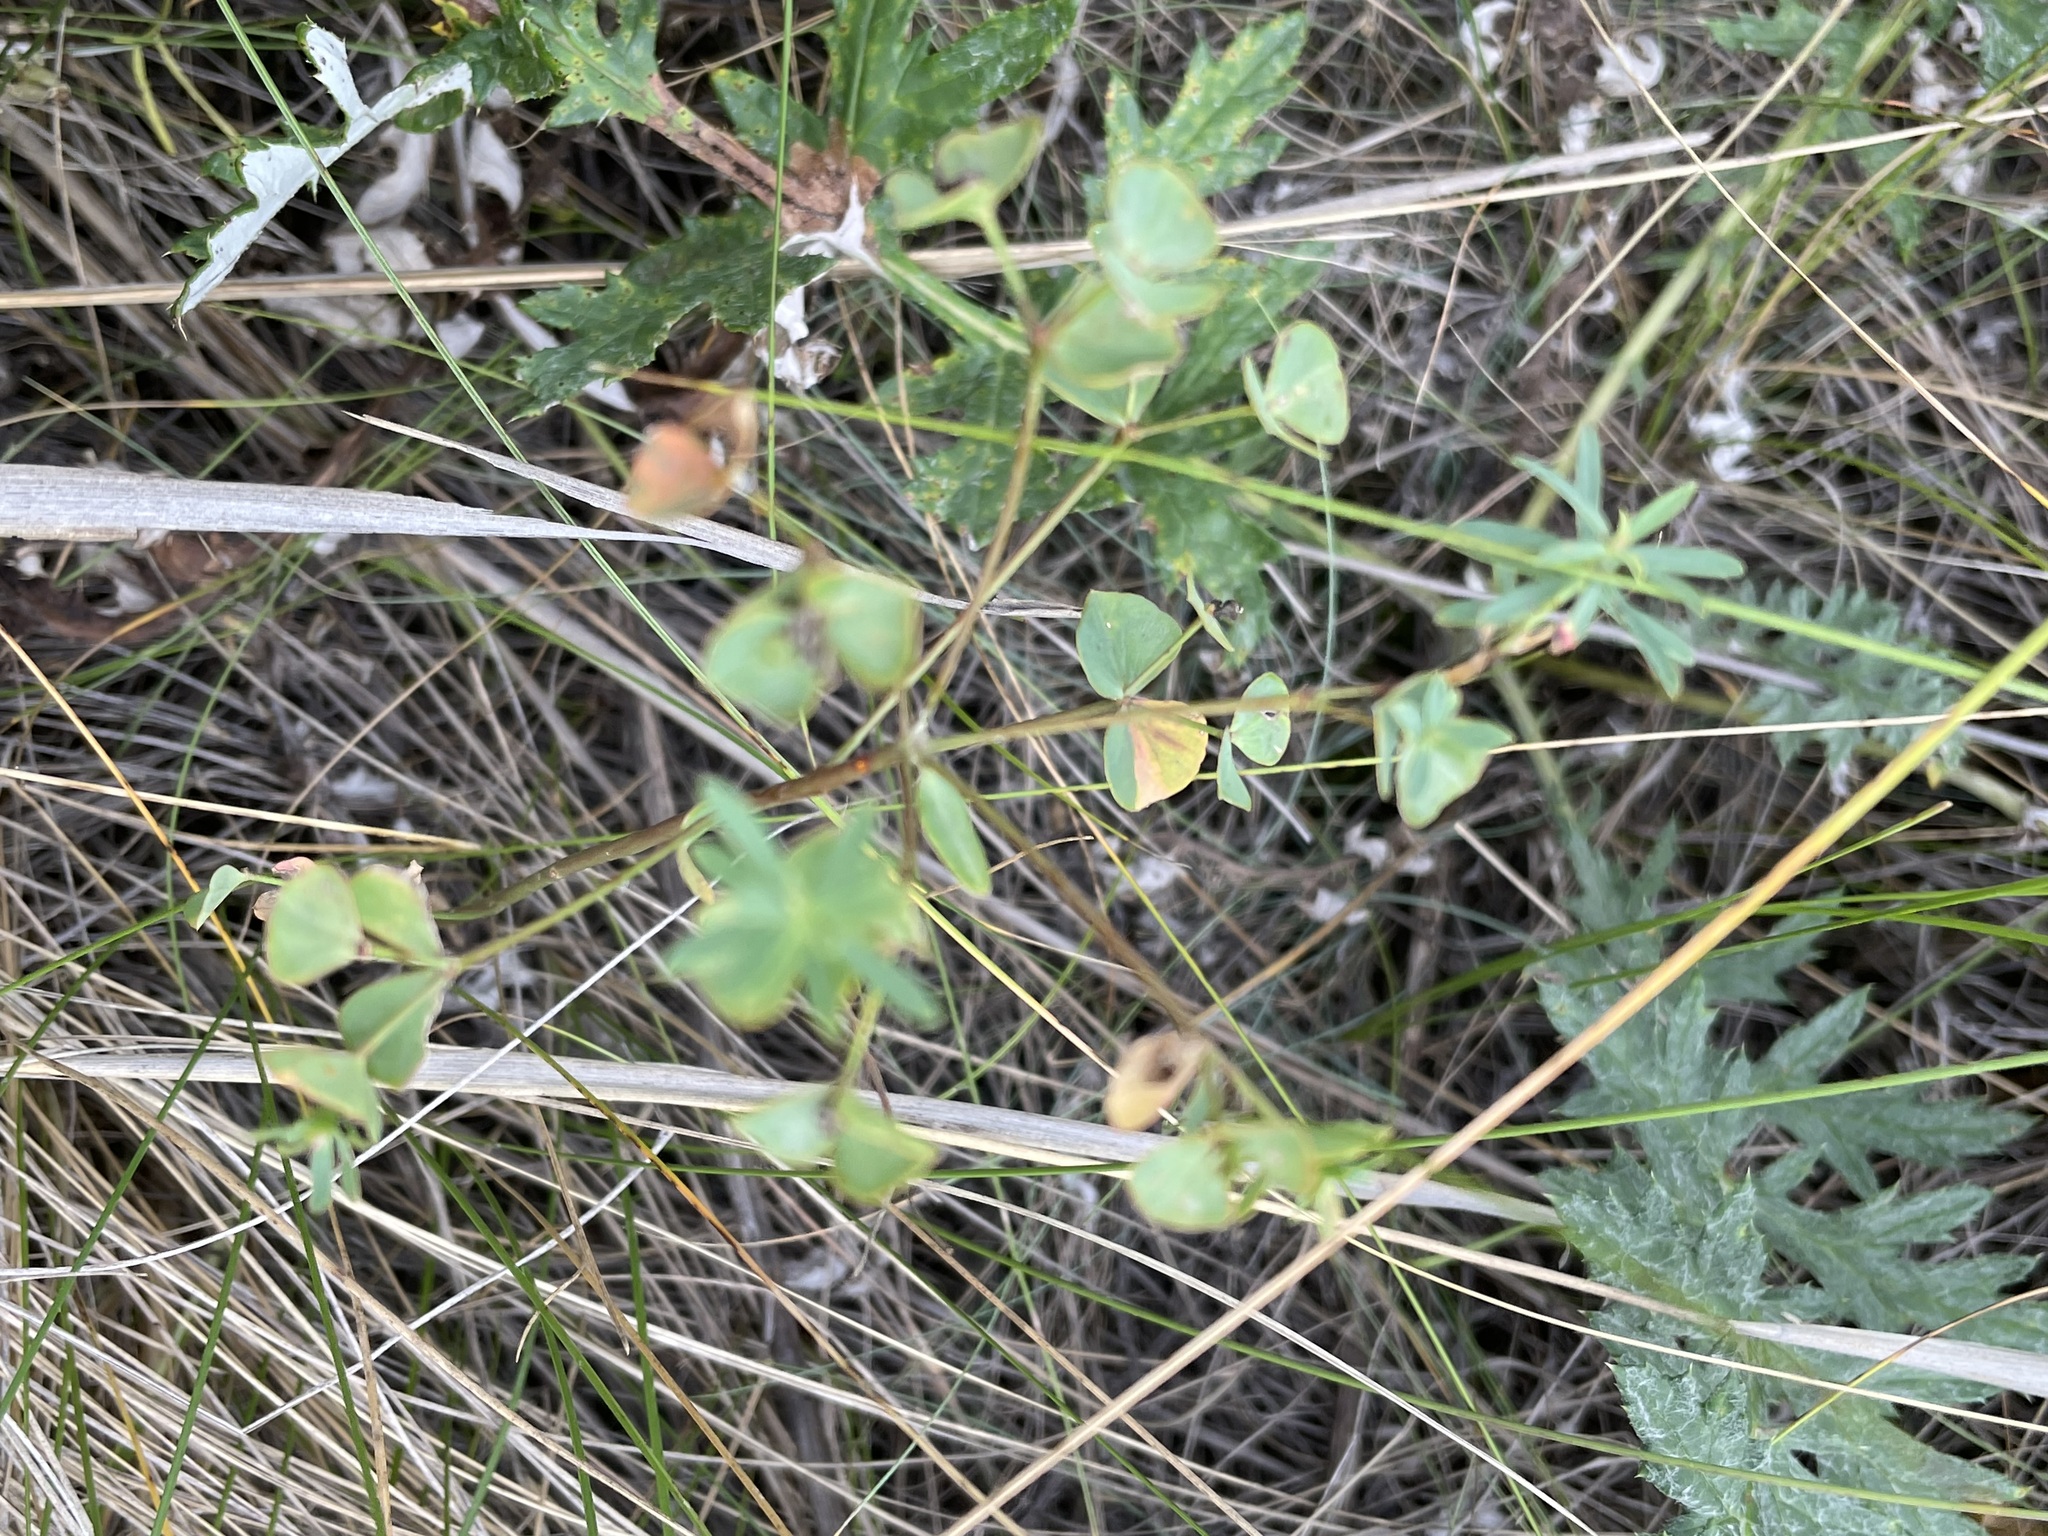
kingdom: Plantae
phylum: Tracheophyta
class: Magnoliopsida
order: Malpighiales
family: Euphorbiaceae
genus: Euphorbia
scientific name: Euphorbia esula
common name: Leafy spurge
